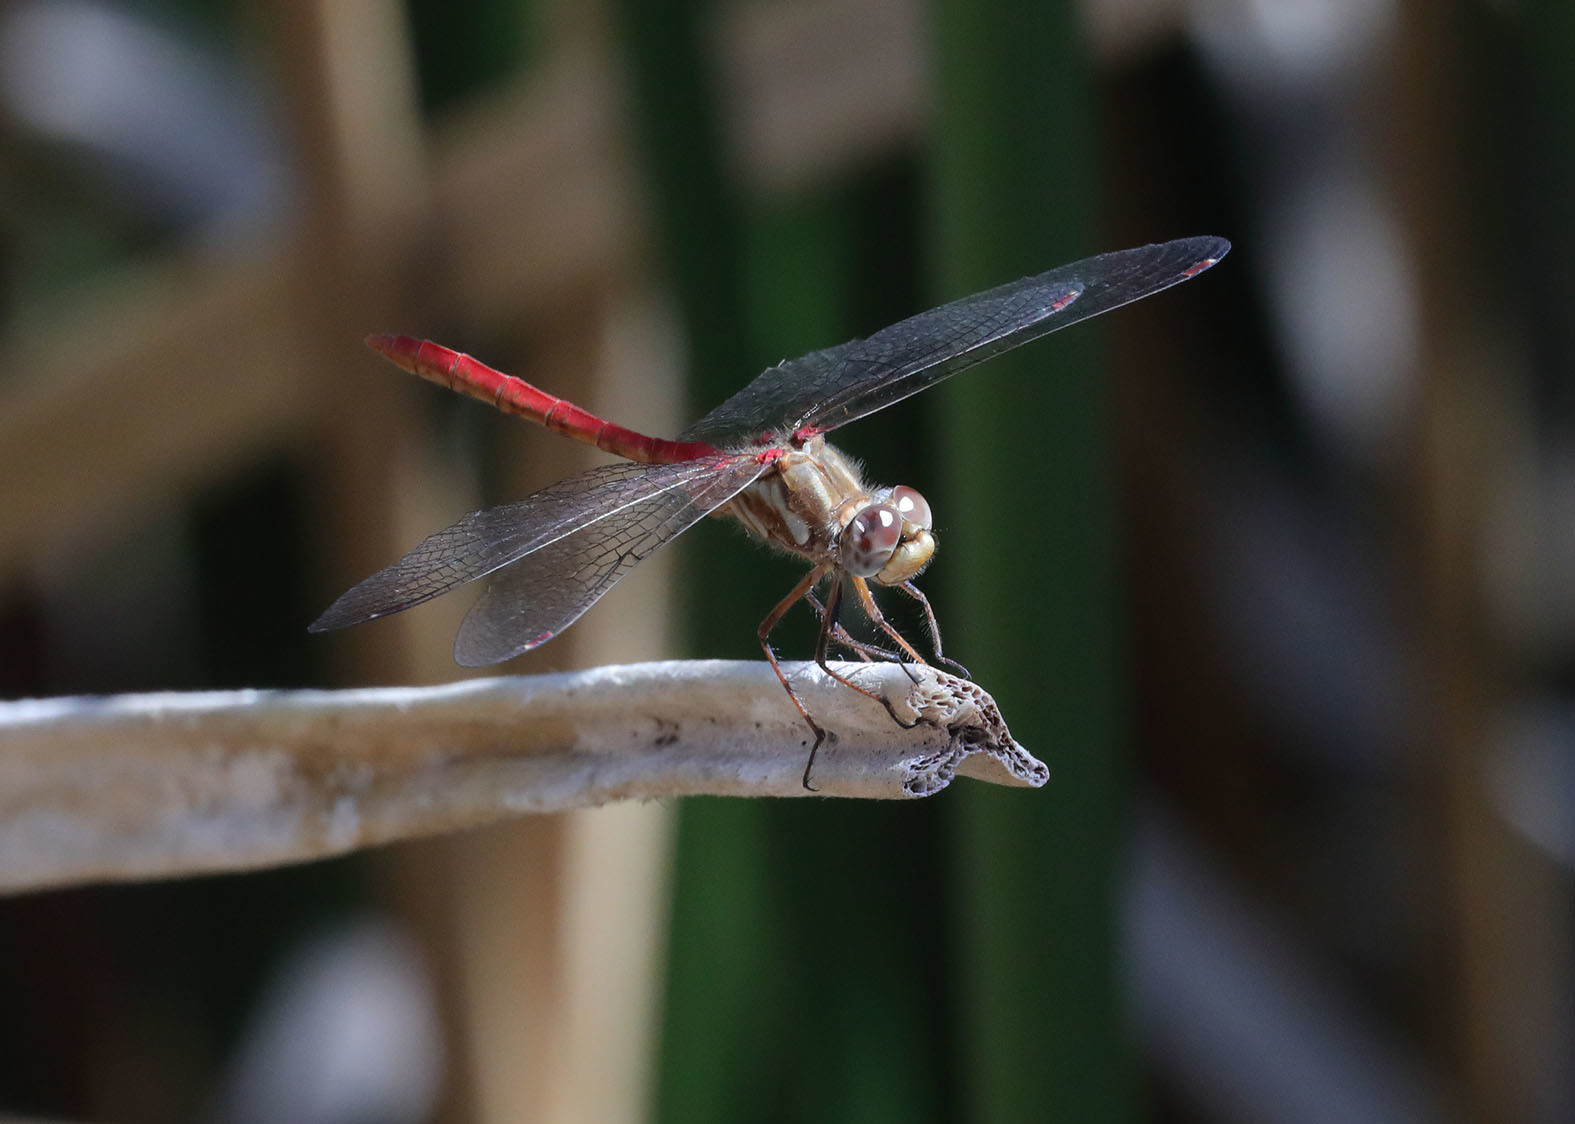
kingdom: Animalia
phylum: Arthropoda
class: Insecta
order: Odonata
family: Libellulidae
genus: Sympetrum
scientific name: Sympetrum pallipes
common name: Striped meadowhawk
